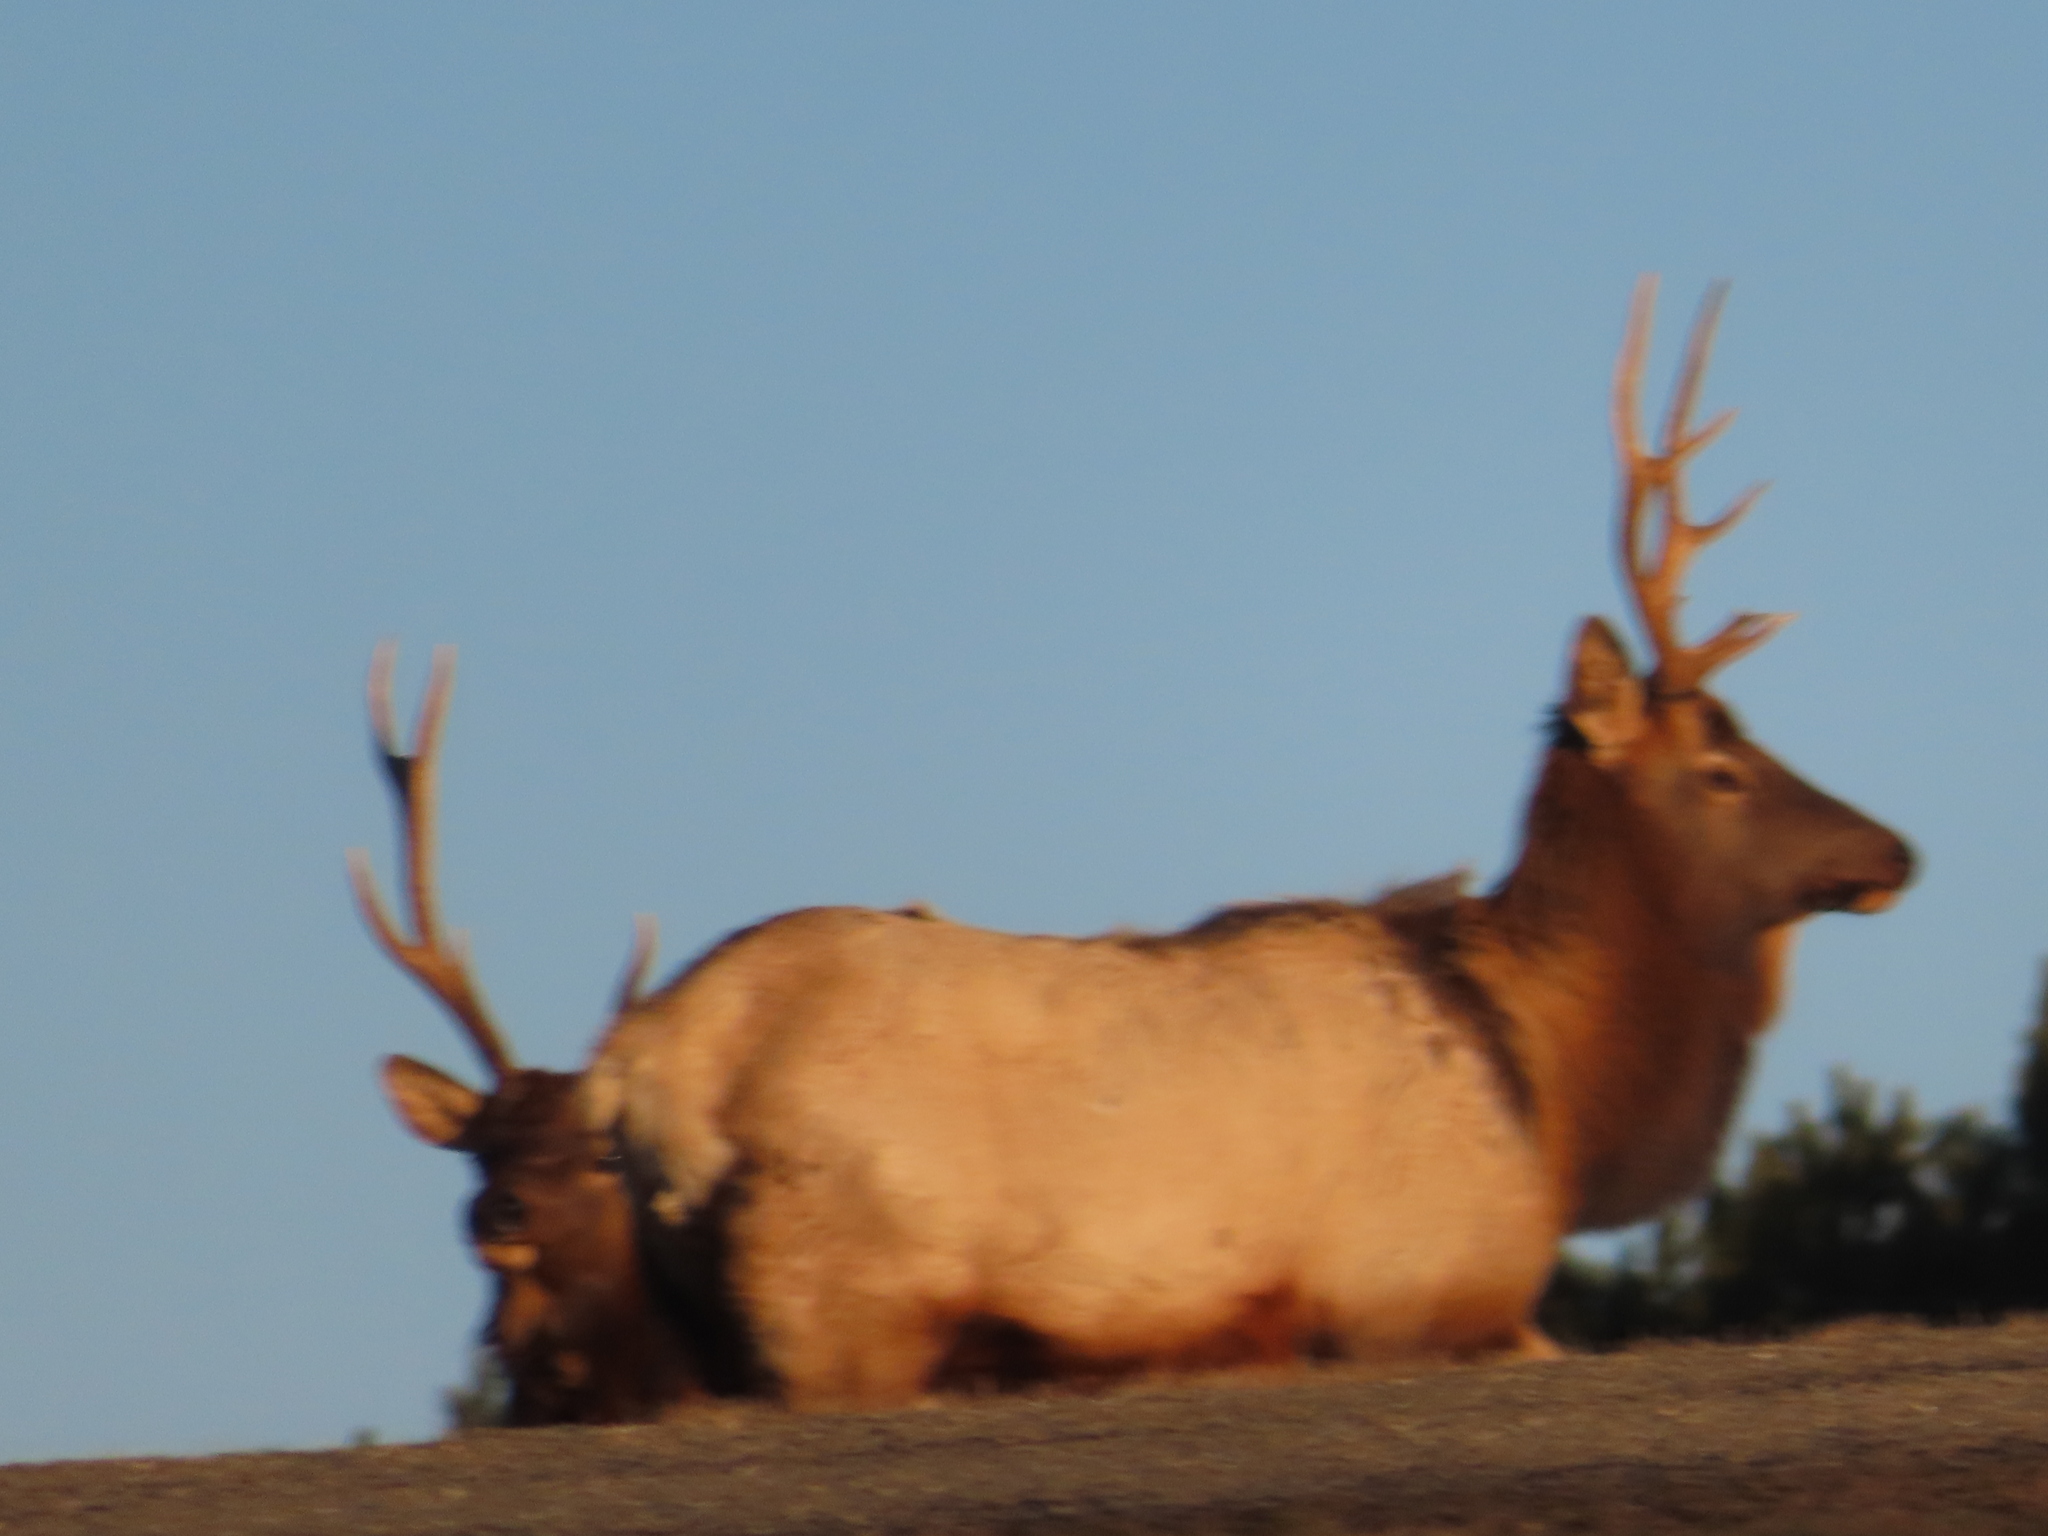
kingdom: Animalia
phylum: Chordata
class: Mammalia
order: Artiodactyla
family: Cervidae
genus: Cervus
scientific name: Cervus elaphus
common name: Red deer
